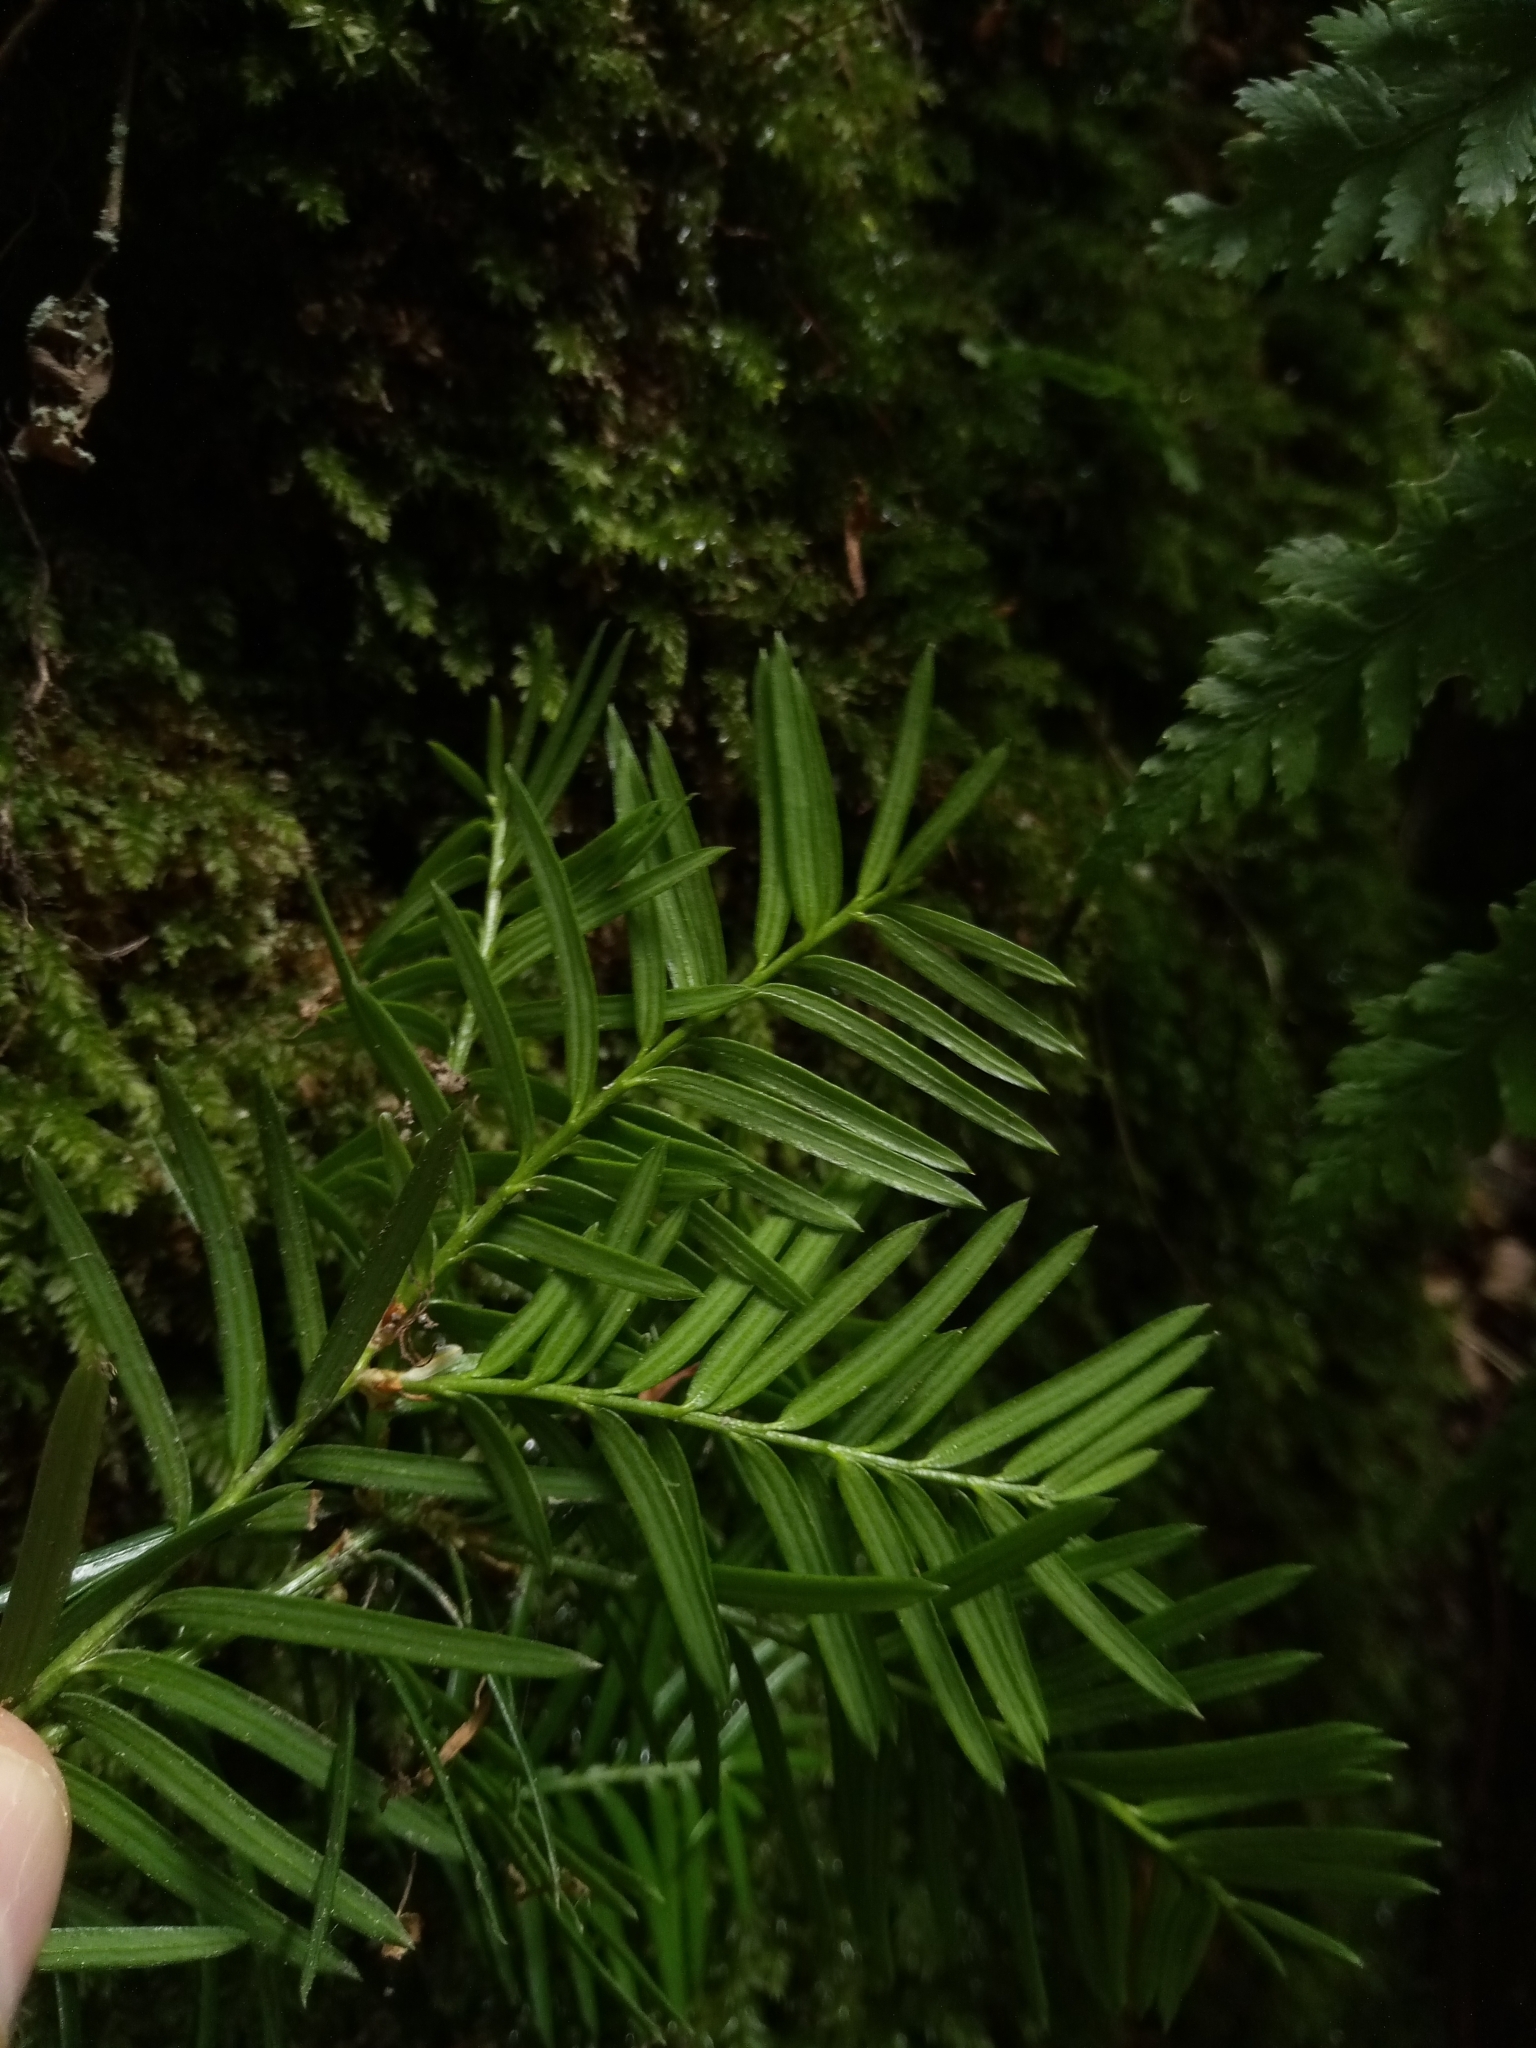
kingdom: Plantae
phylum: Tracheophyta
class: Pinopsida
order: Pinales
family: Taxaceae
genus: Taxus
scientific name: Taxus baccata
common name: Yew
